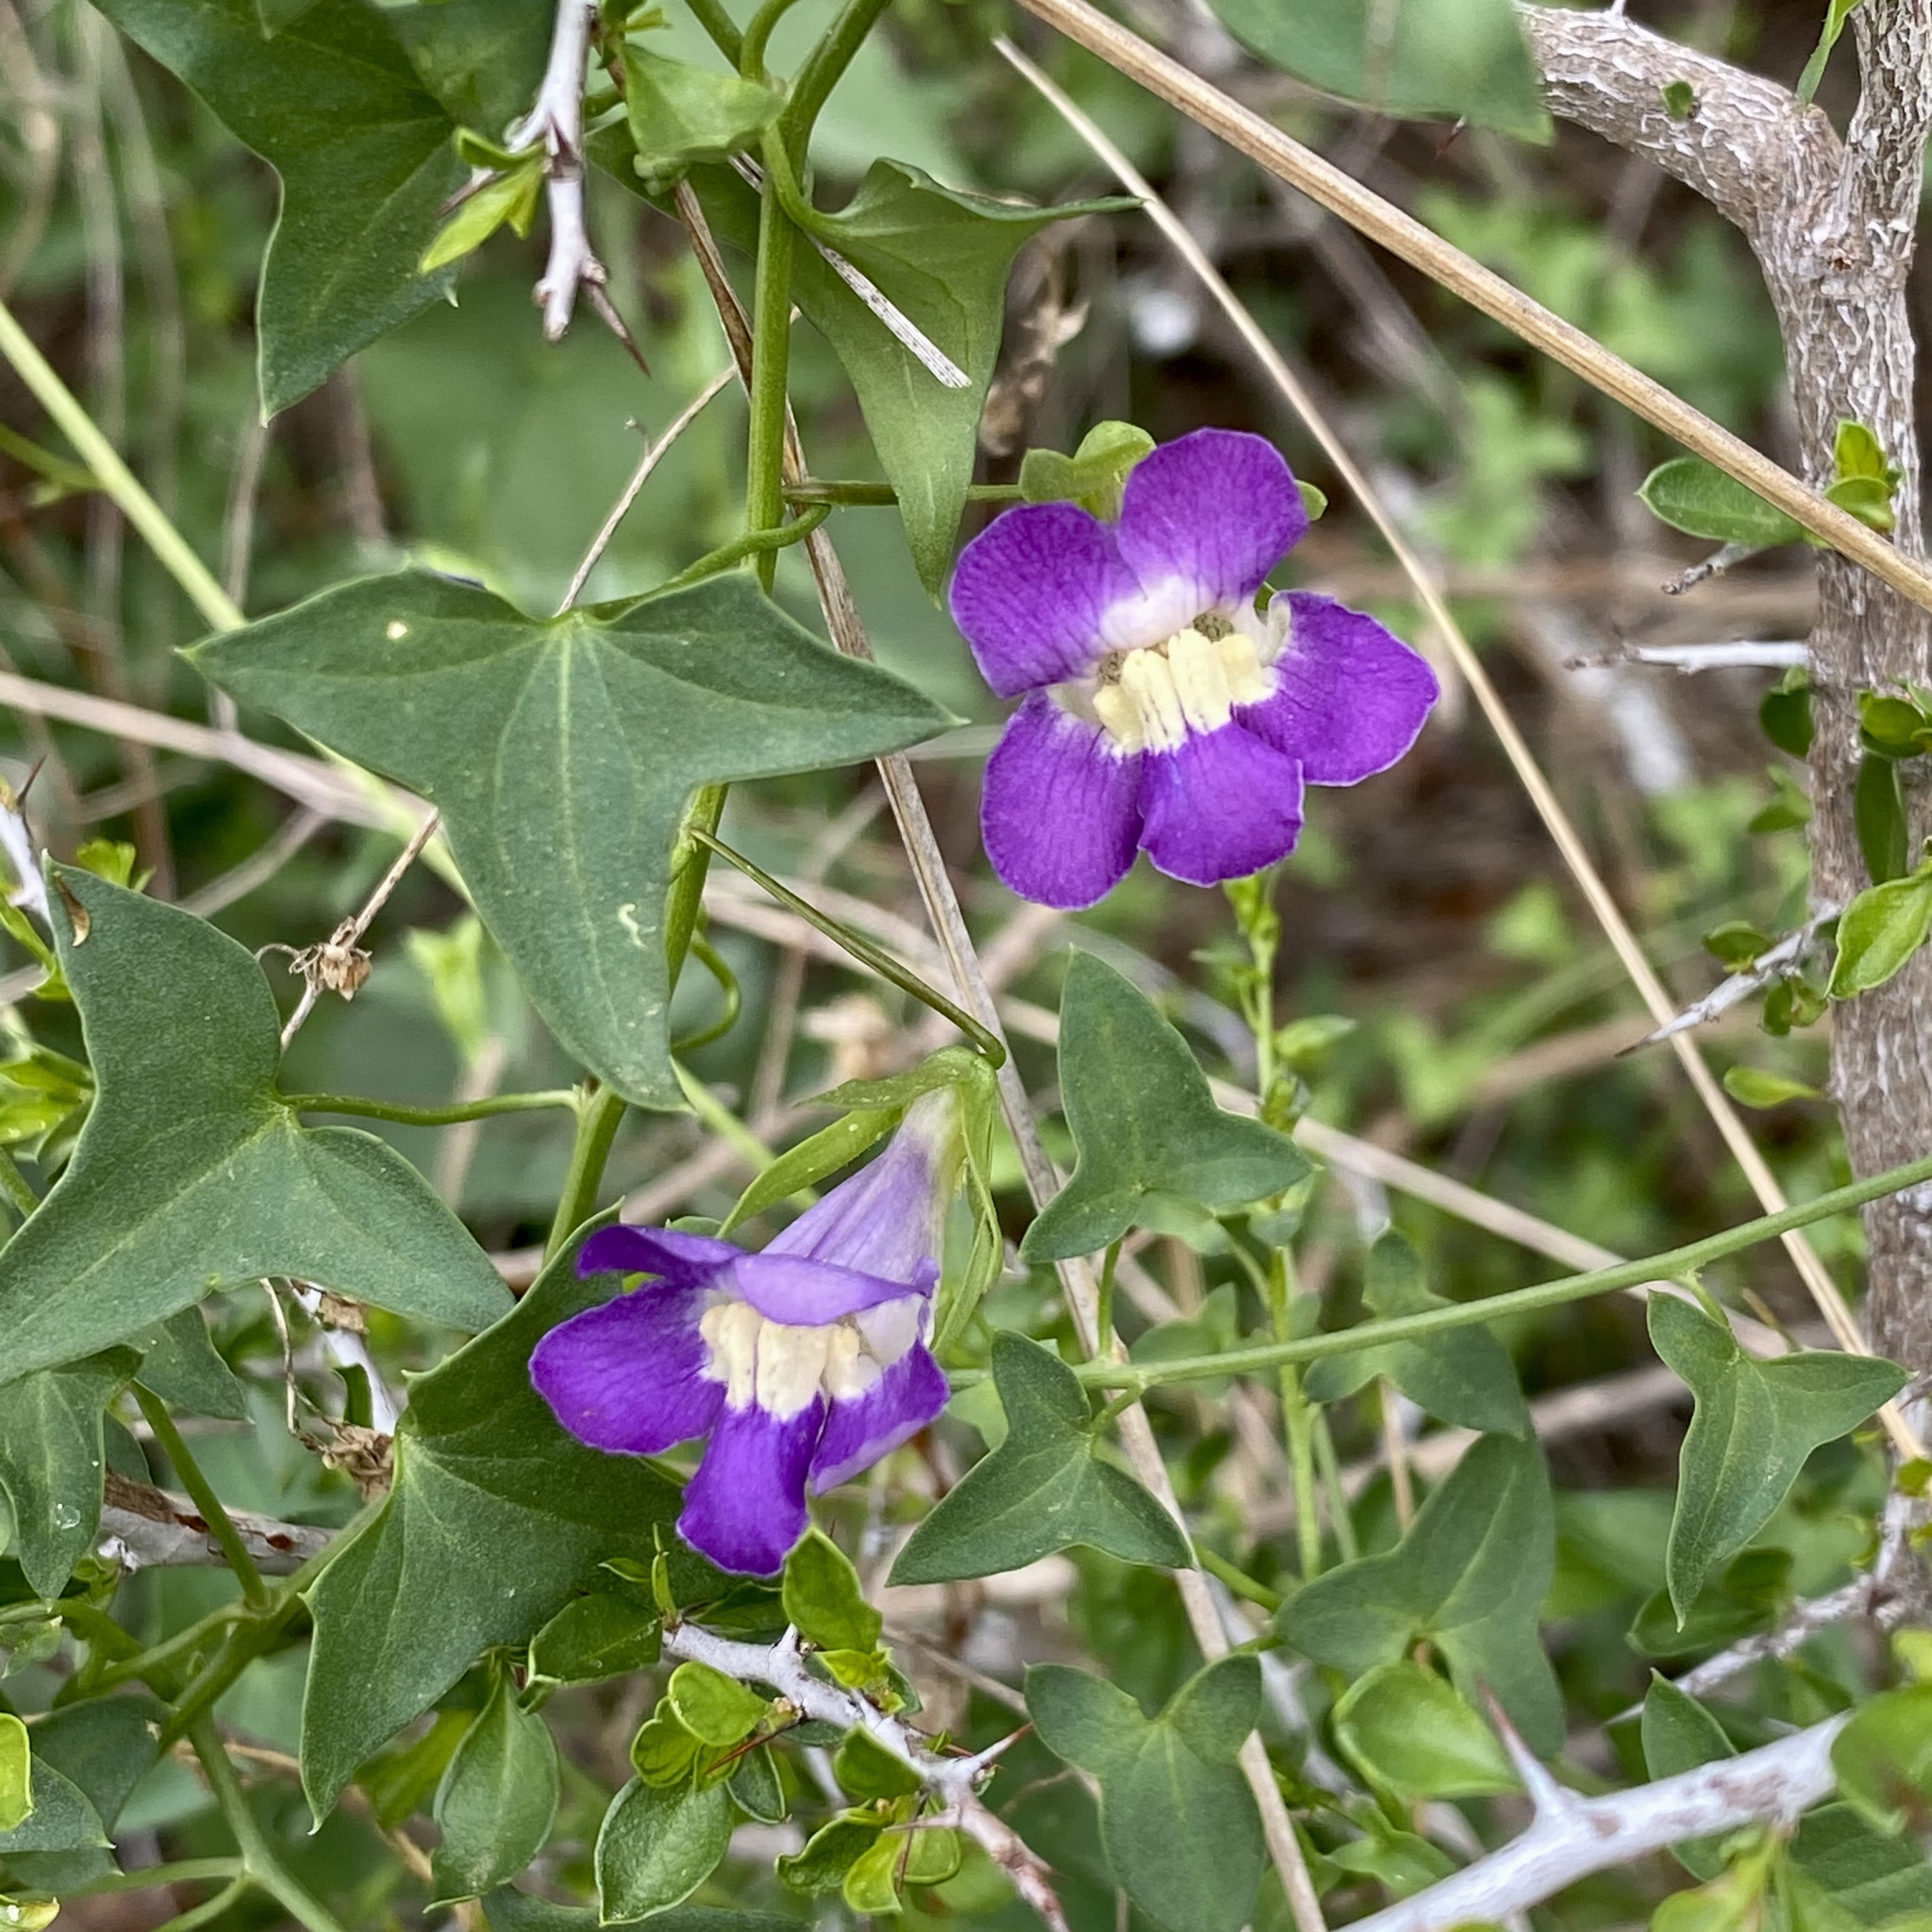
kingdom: Plantae
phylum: Tracheophyta
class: Magnoliopsida
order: Lamiales
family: Plantaginaceae
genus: Maurandella
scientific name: Maurandella antirrhiniflora
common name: Violet twining-snapdragon
